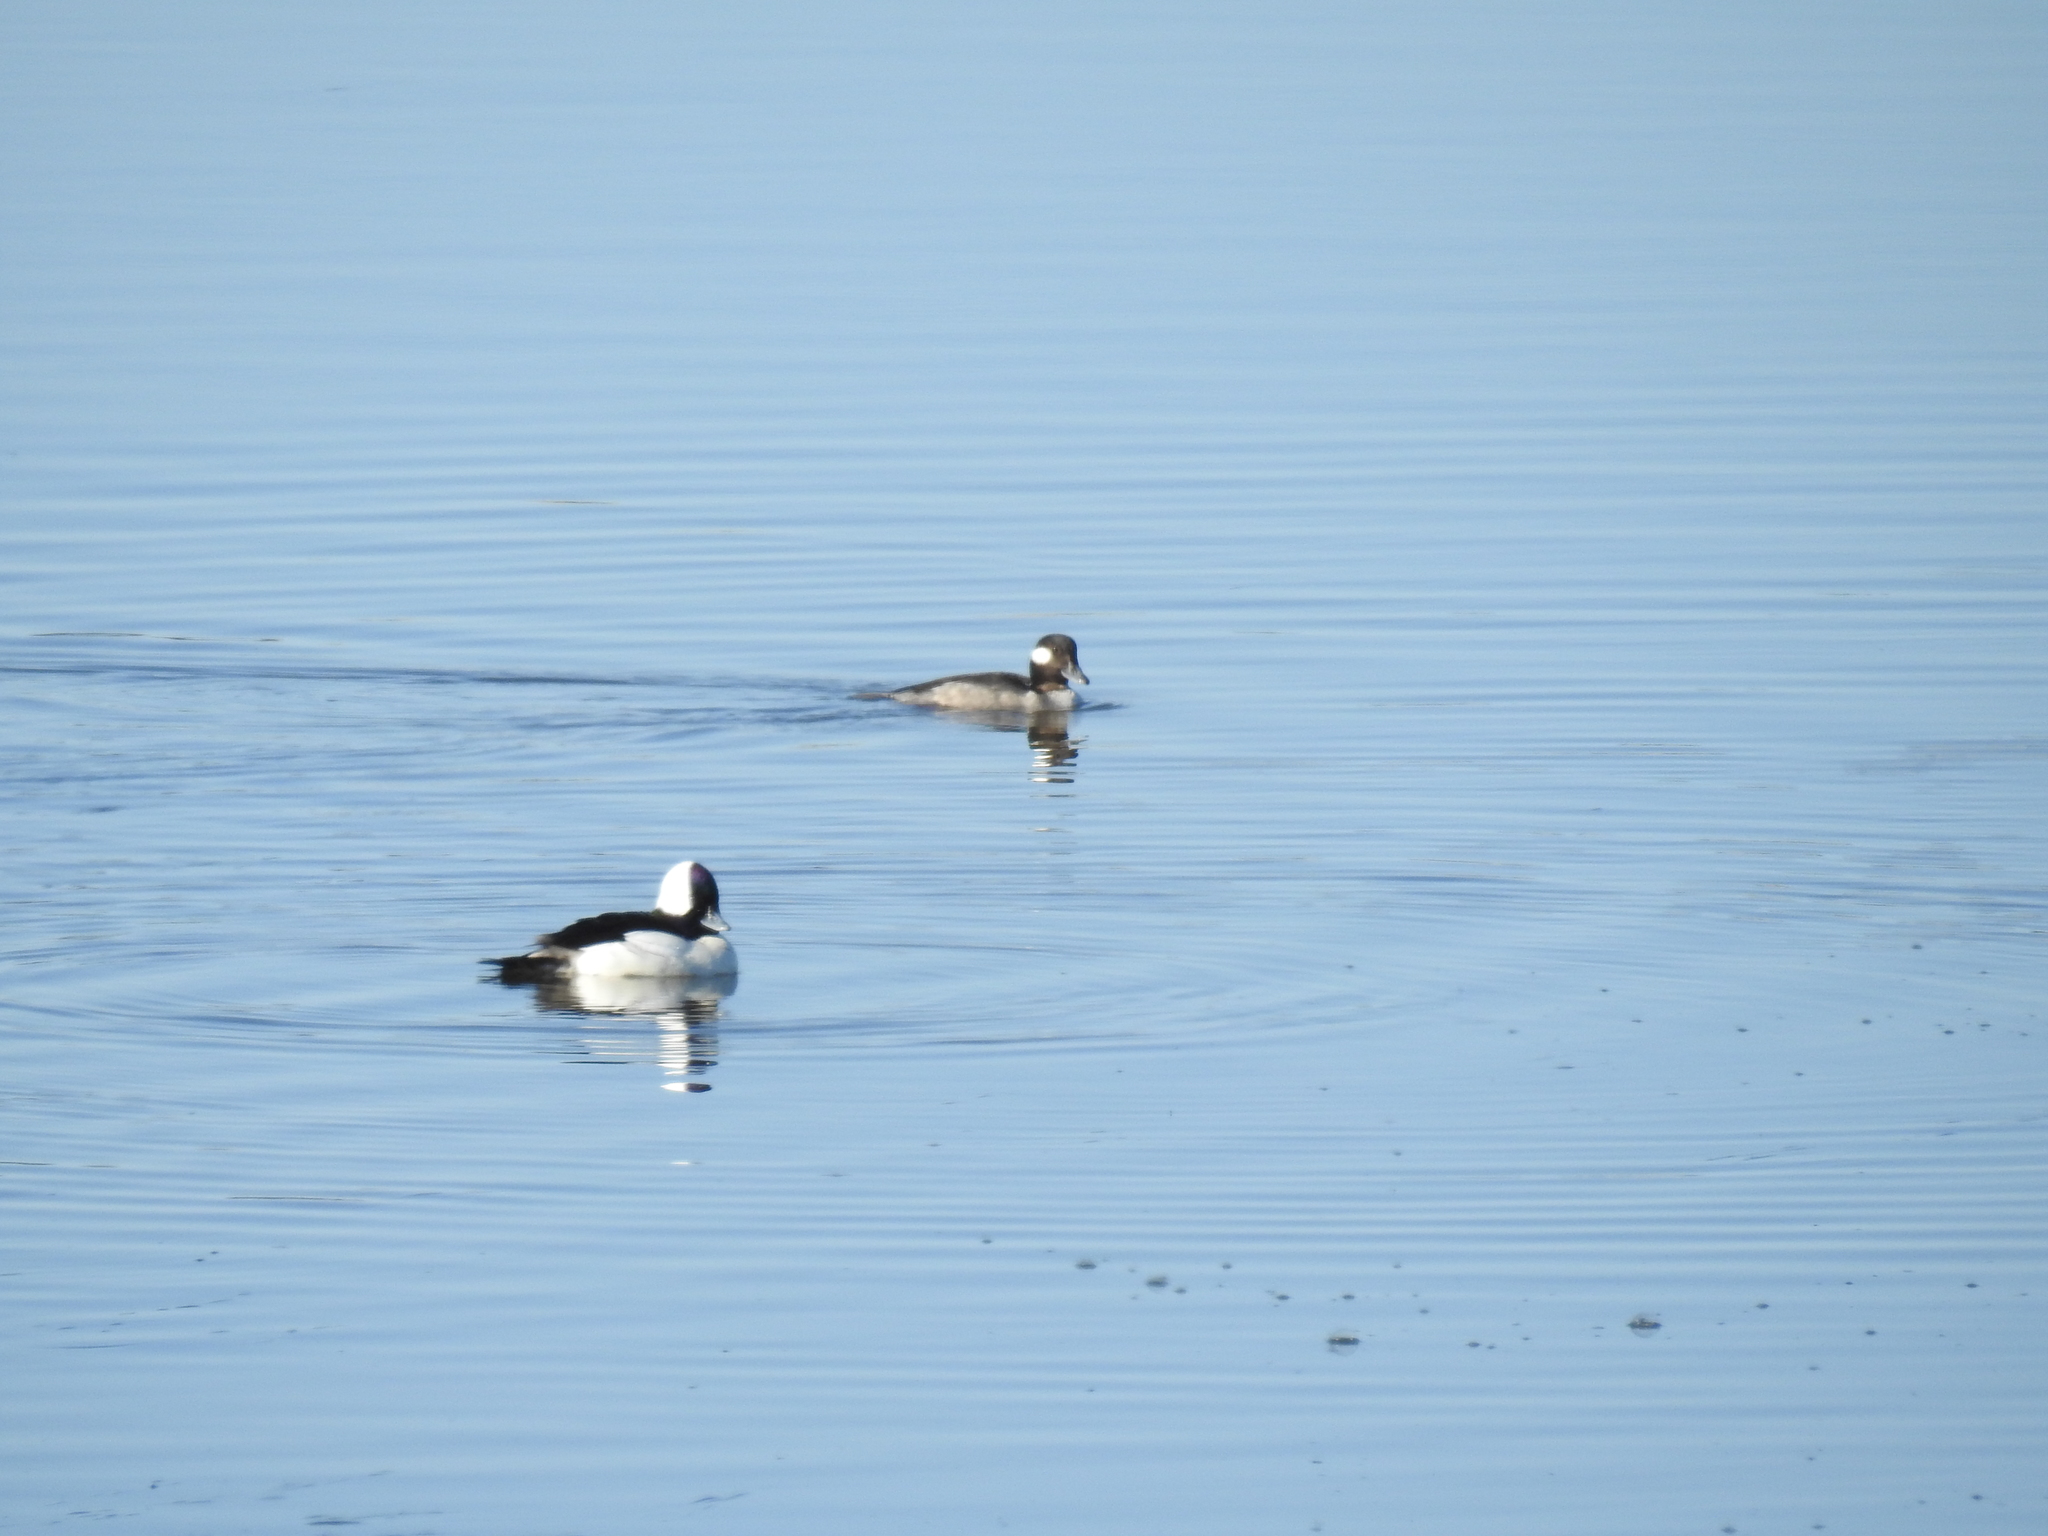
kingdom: Animalia
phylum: Chordata
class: Aves
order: Anseriformes
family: Anatidae
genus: Bucephala
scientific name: Bucephala albeola
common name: Bufflehead
